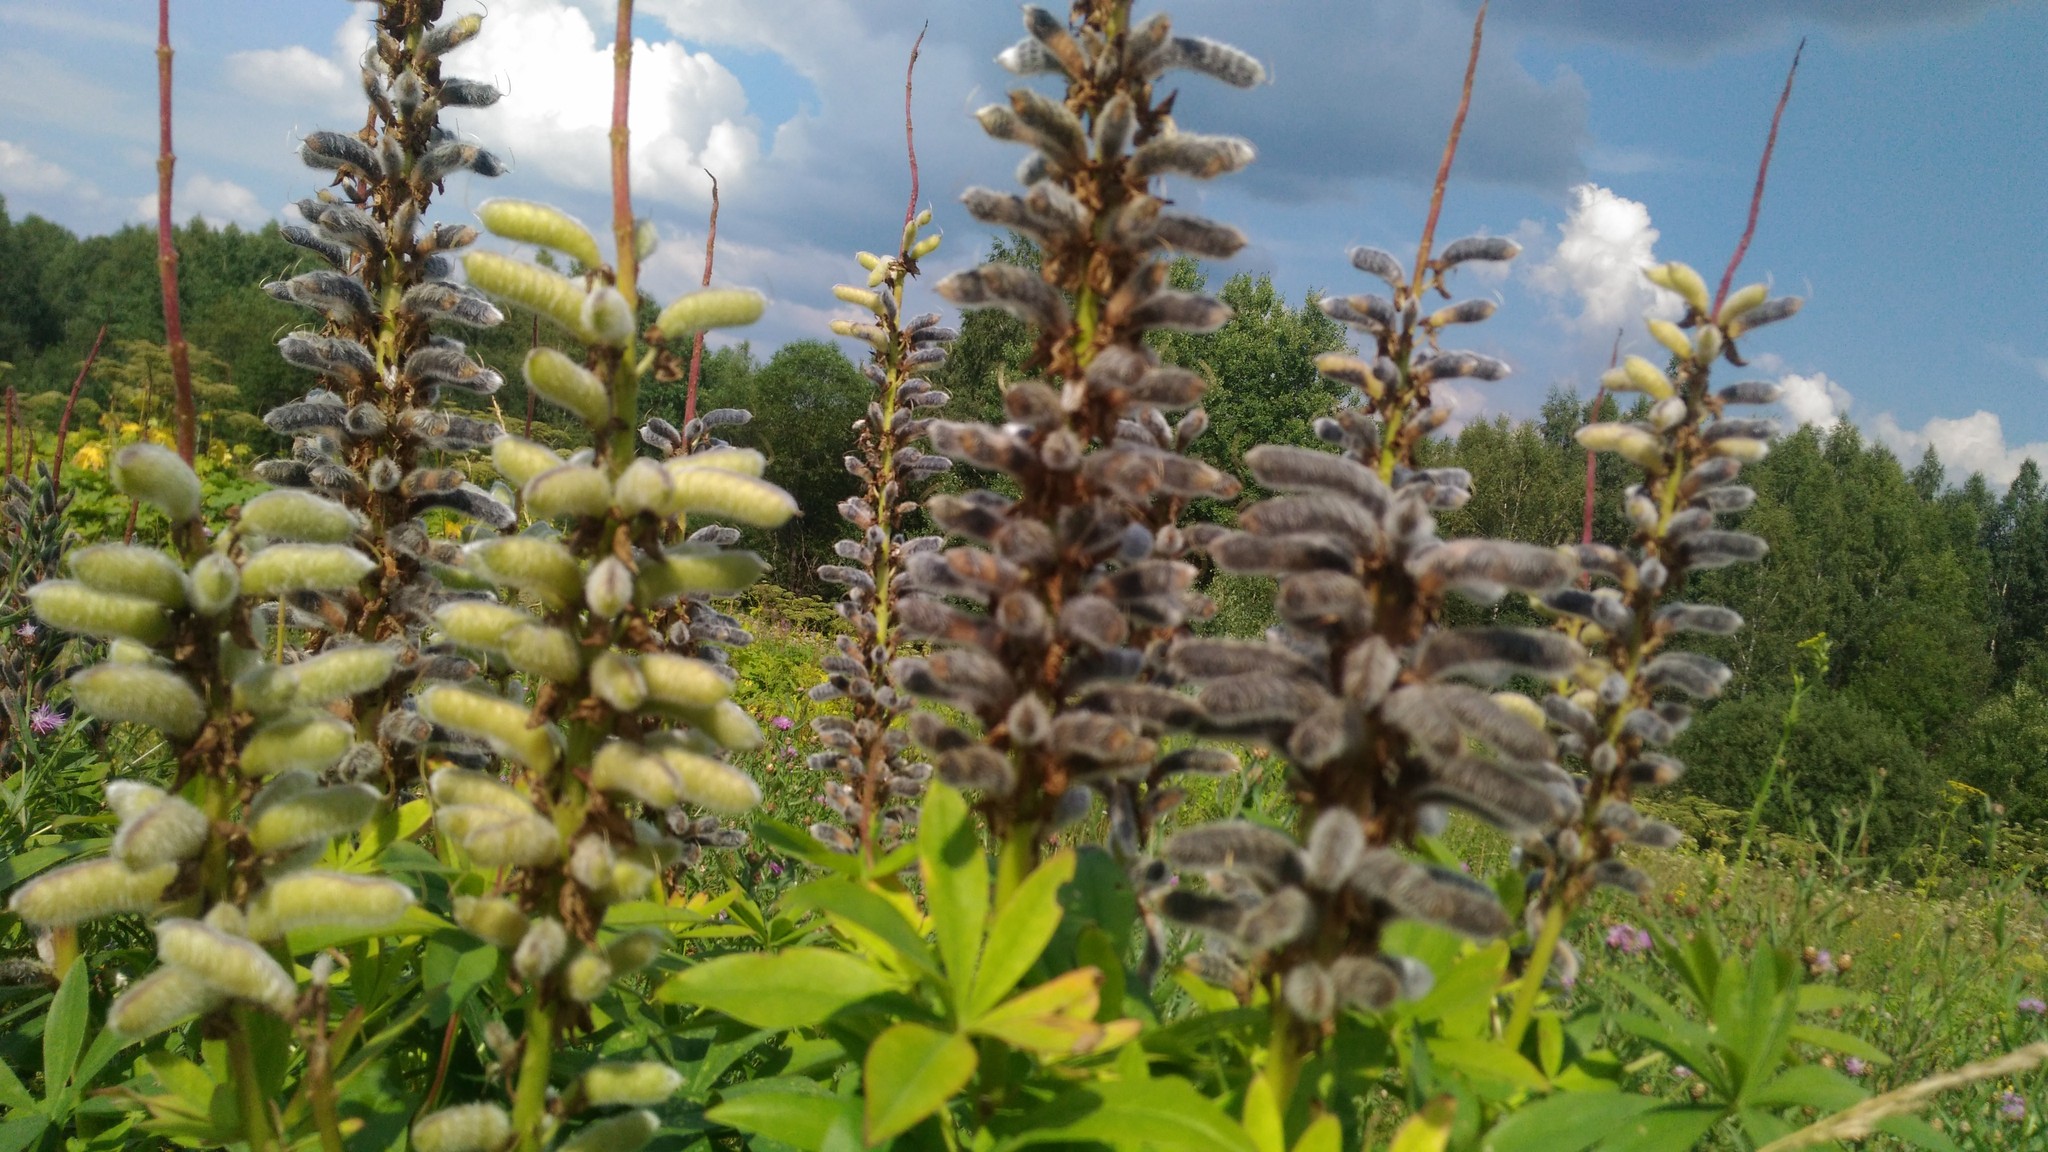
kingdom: Plantae
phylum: Tracheophyta
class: Magnoliopsida
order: Fabales
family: Fabaceae
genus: Lupinus
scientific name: Lupinus polyphyllus
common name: Garden lupin
